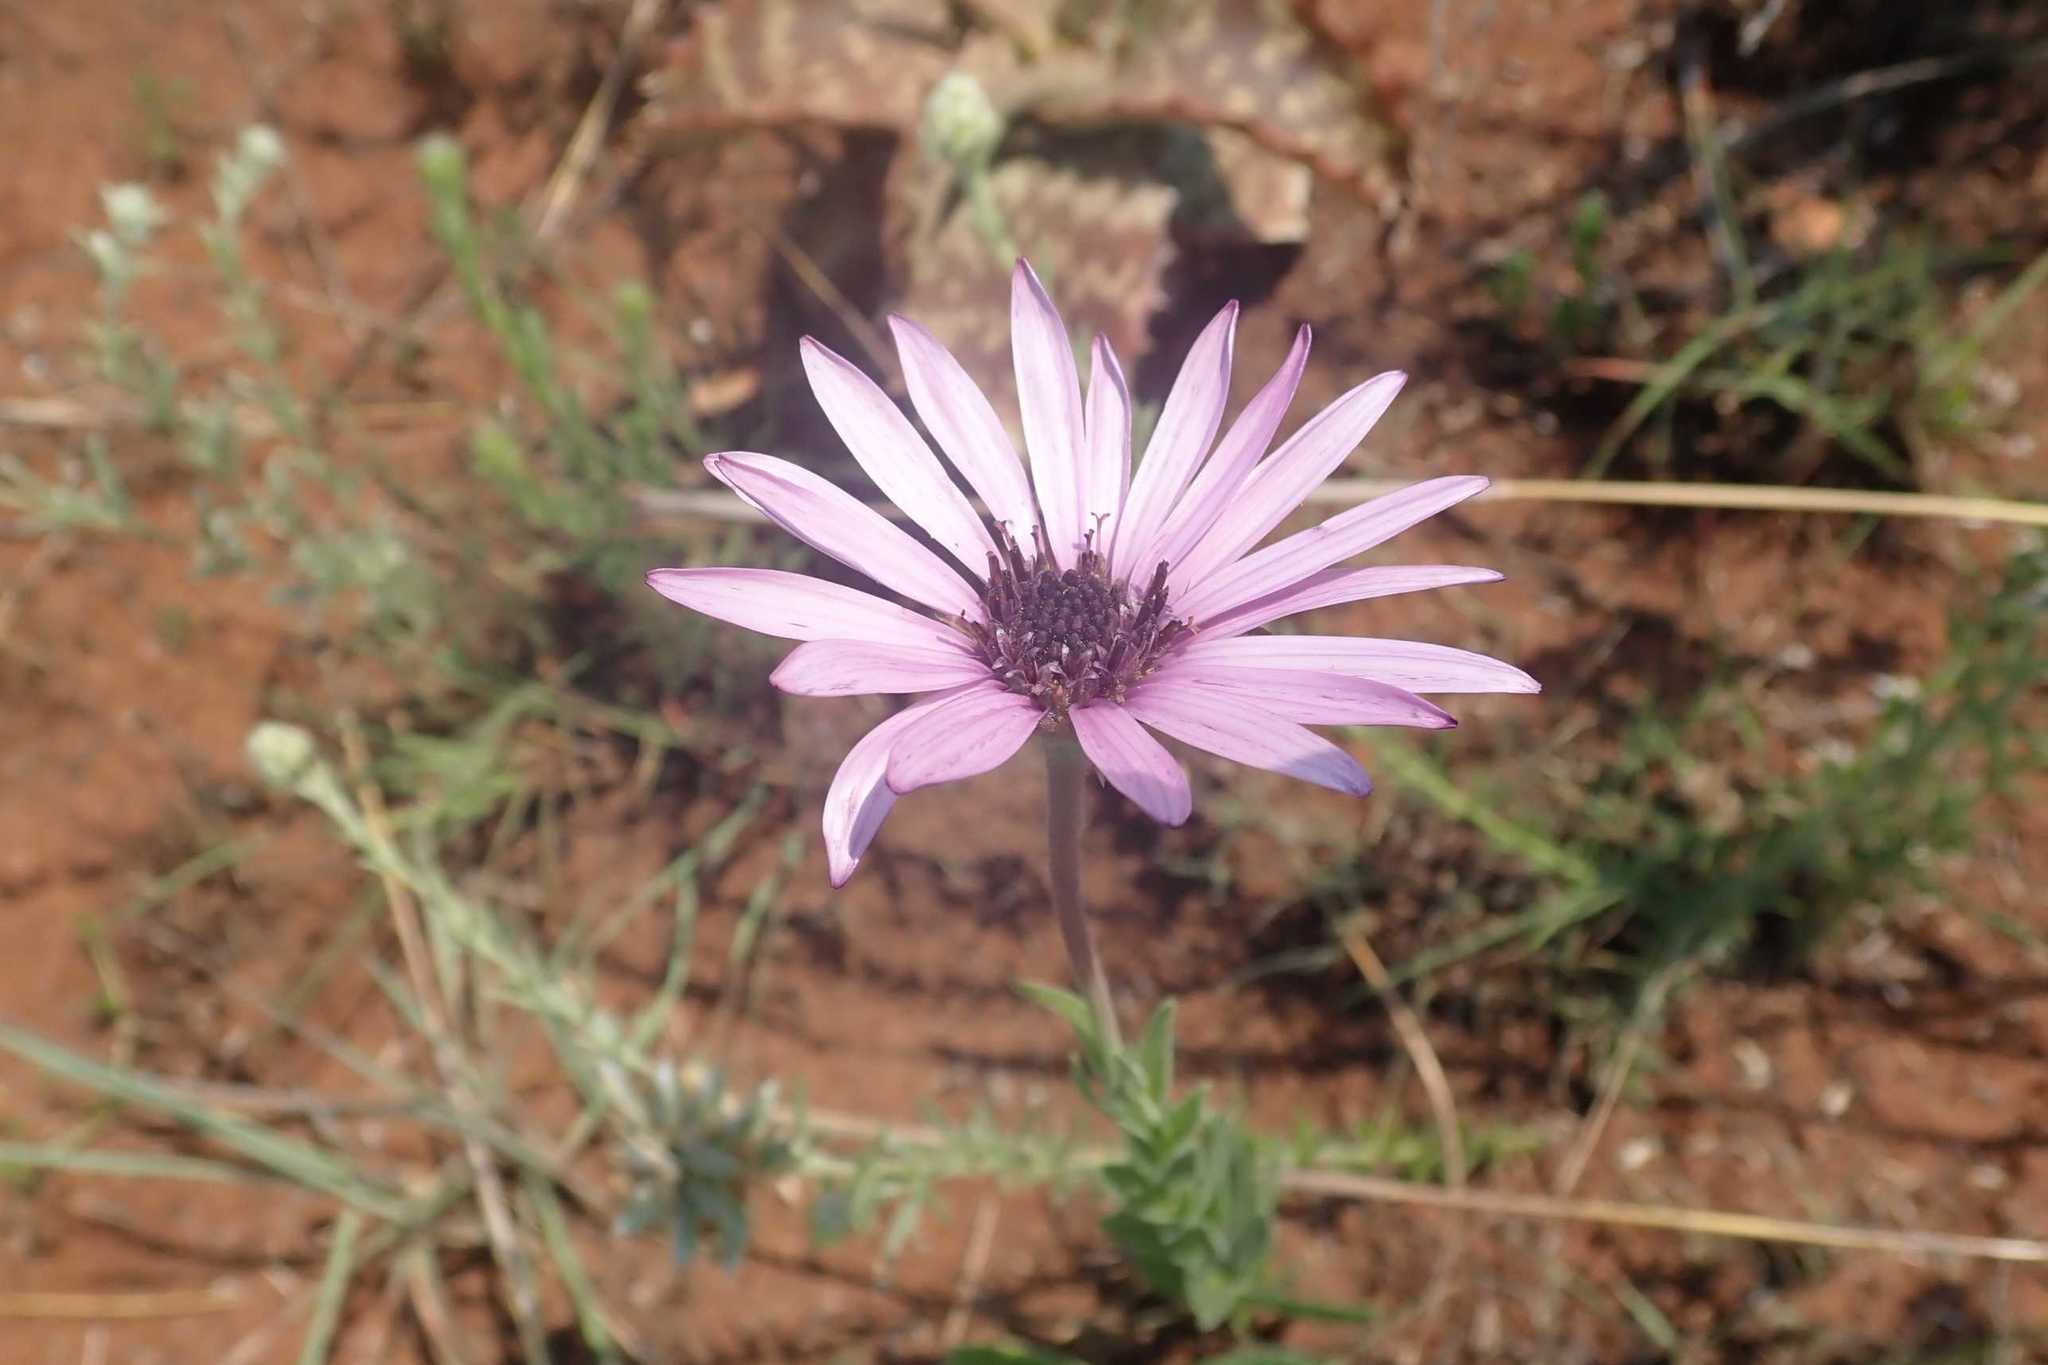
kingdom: Plantae
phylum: Tracheophyta
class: Magnoliopsida
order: Asterales
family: Asteraceae
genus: Dimorphotheca
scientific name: Dimorphotheca spectabilis
